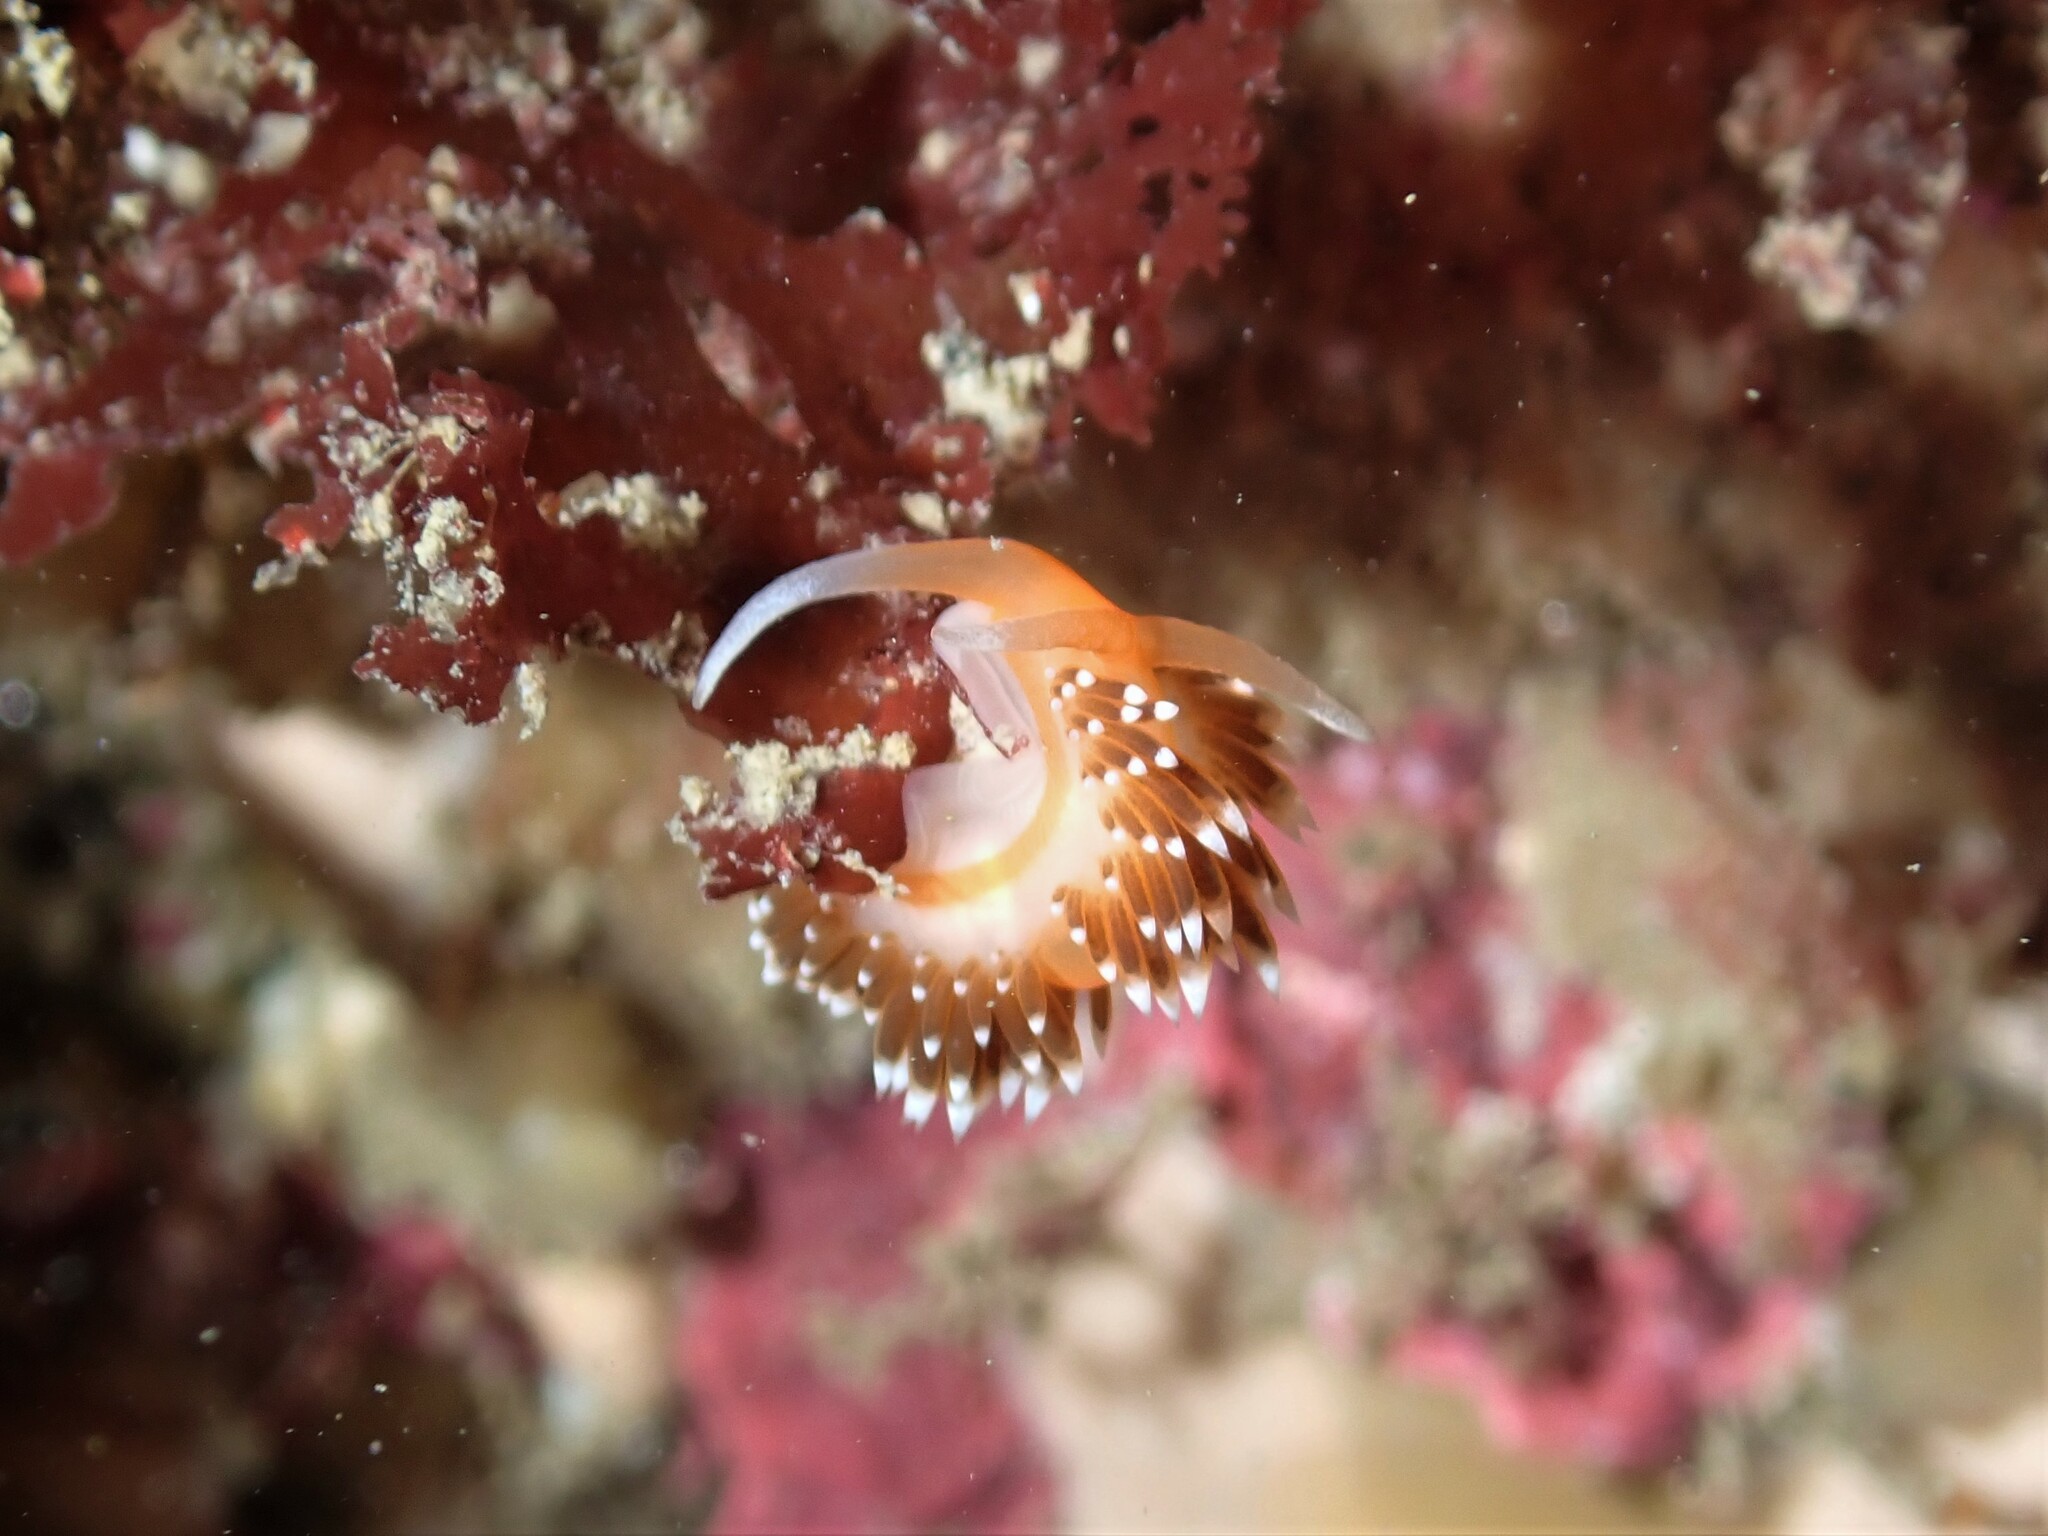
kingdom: Animalia
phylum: Mollusca
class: Gastropoda
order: Nudibranchia
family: Facelinidae
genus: Phidiana
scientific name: Phidiana milleri
